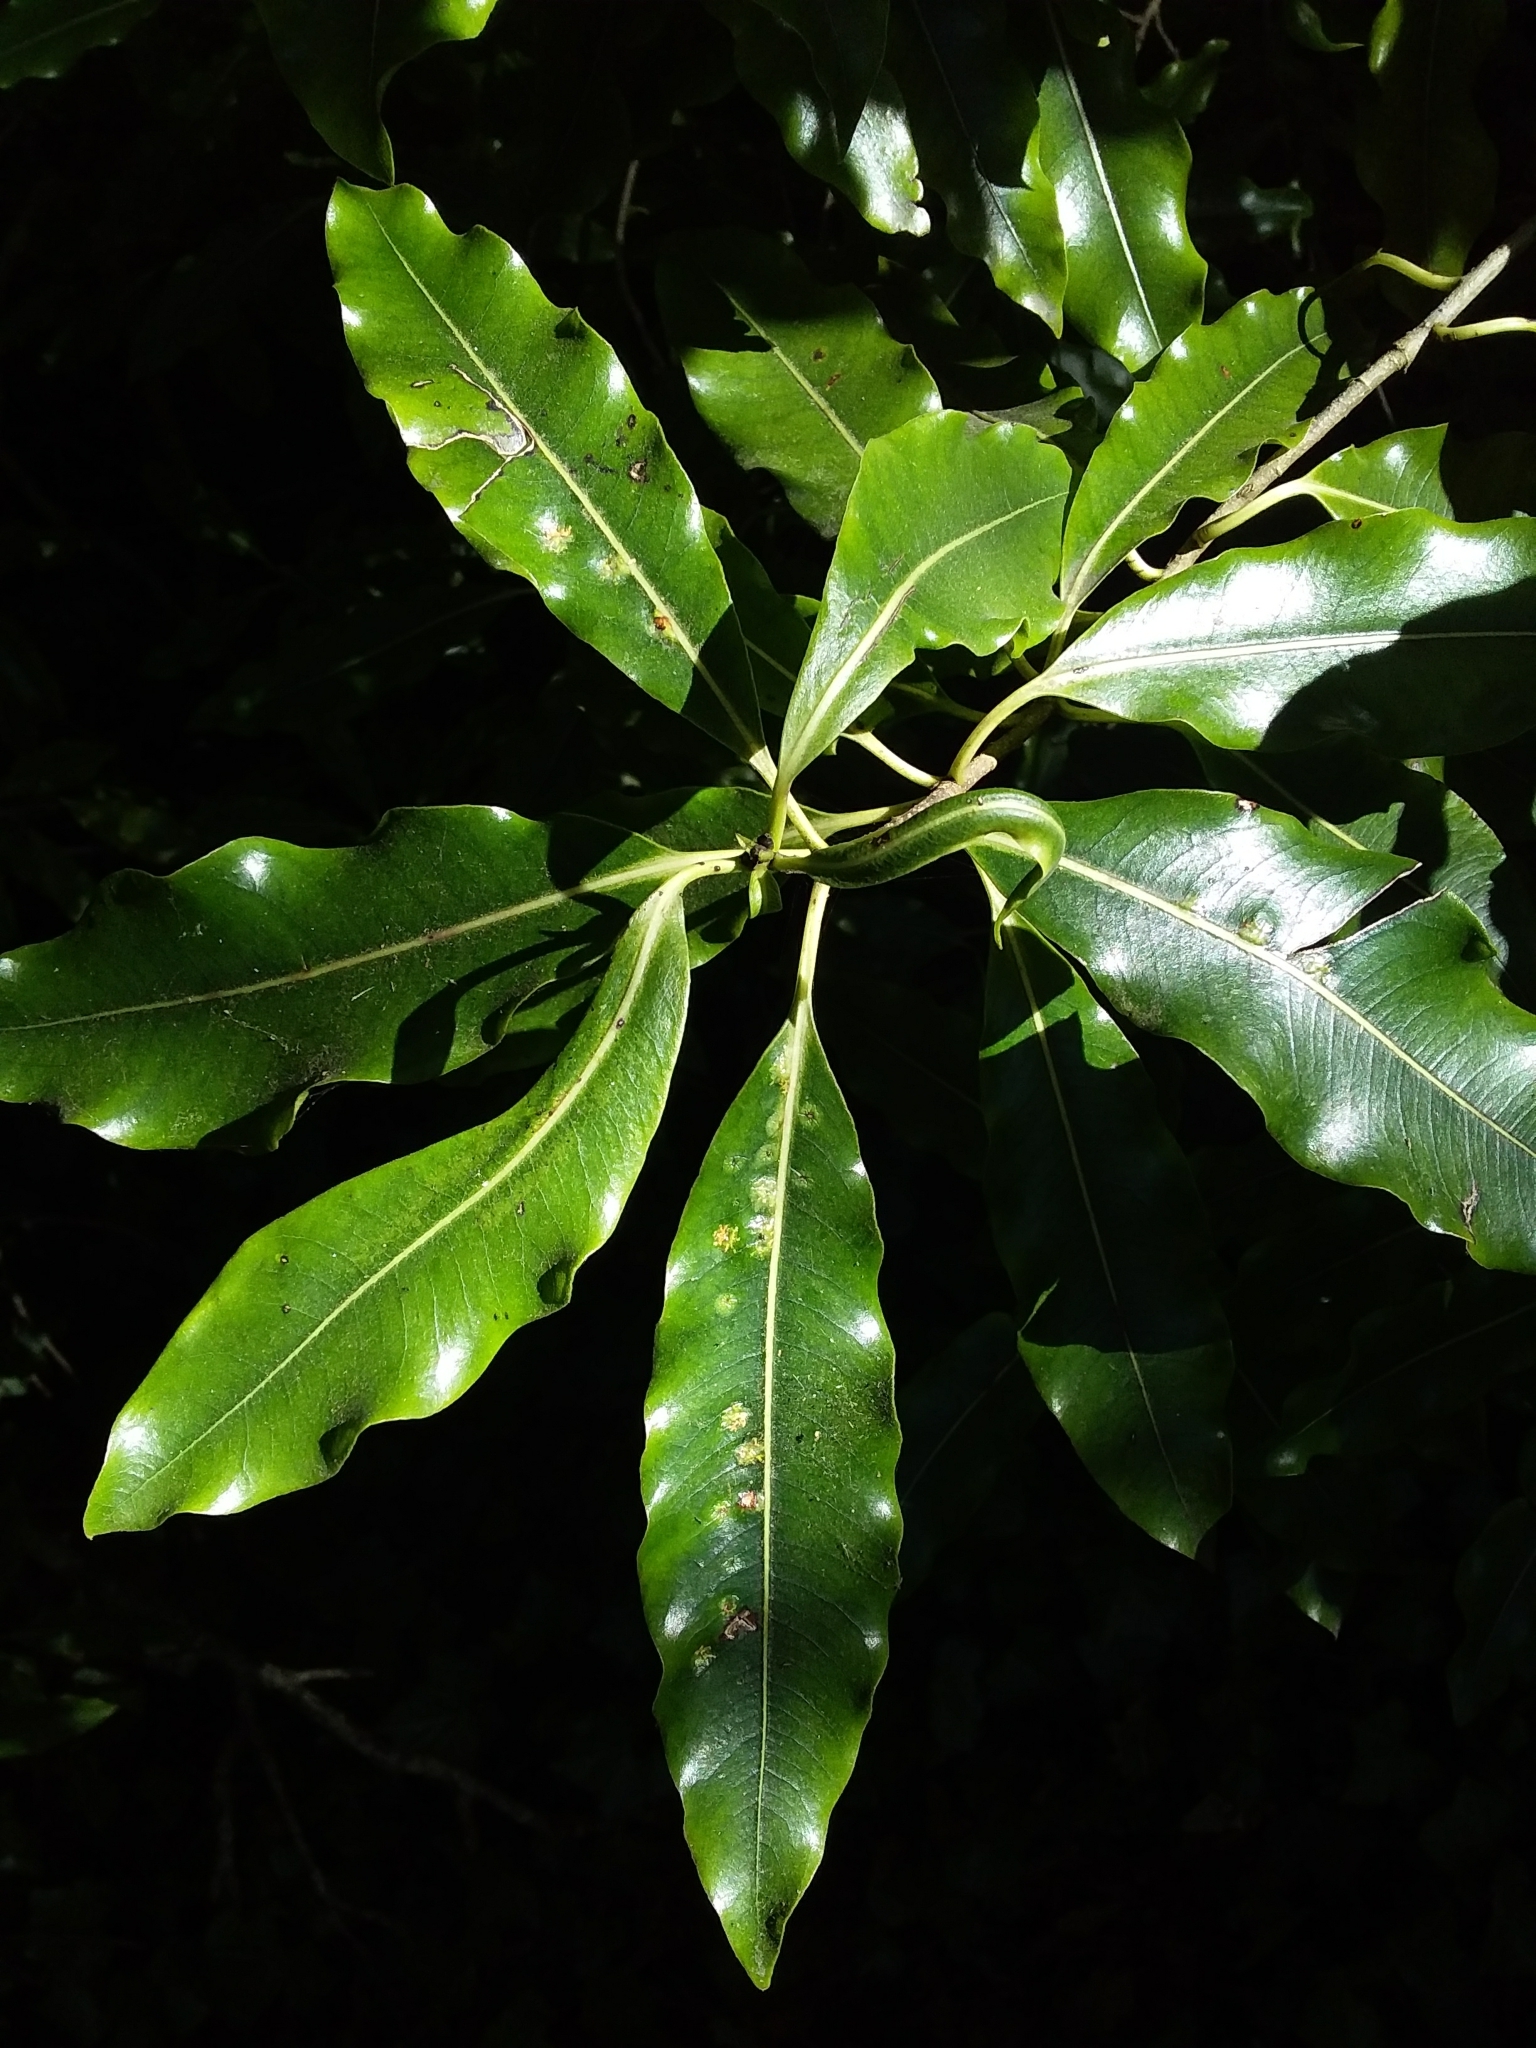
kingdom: Plantae
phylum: Tracheophyta
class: Magnoliopsida
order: Apiales
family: Pittosporaceae
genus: Pittosporum
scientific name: Pittosporum undulatum
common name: Australian cheesewood
